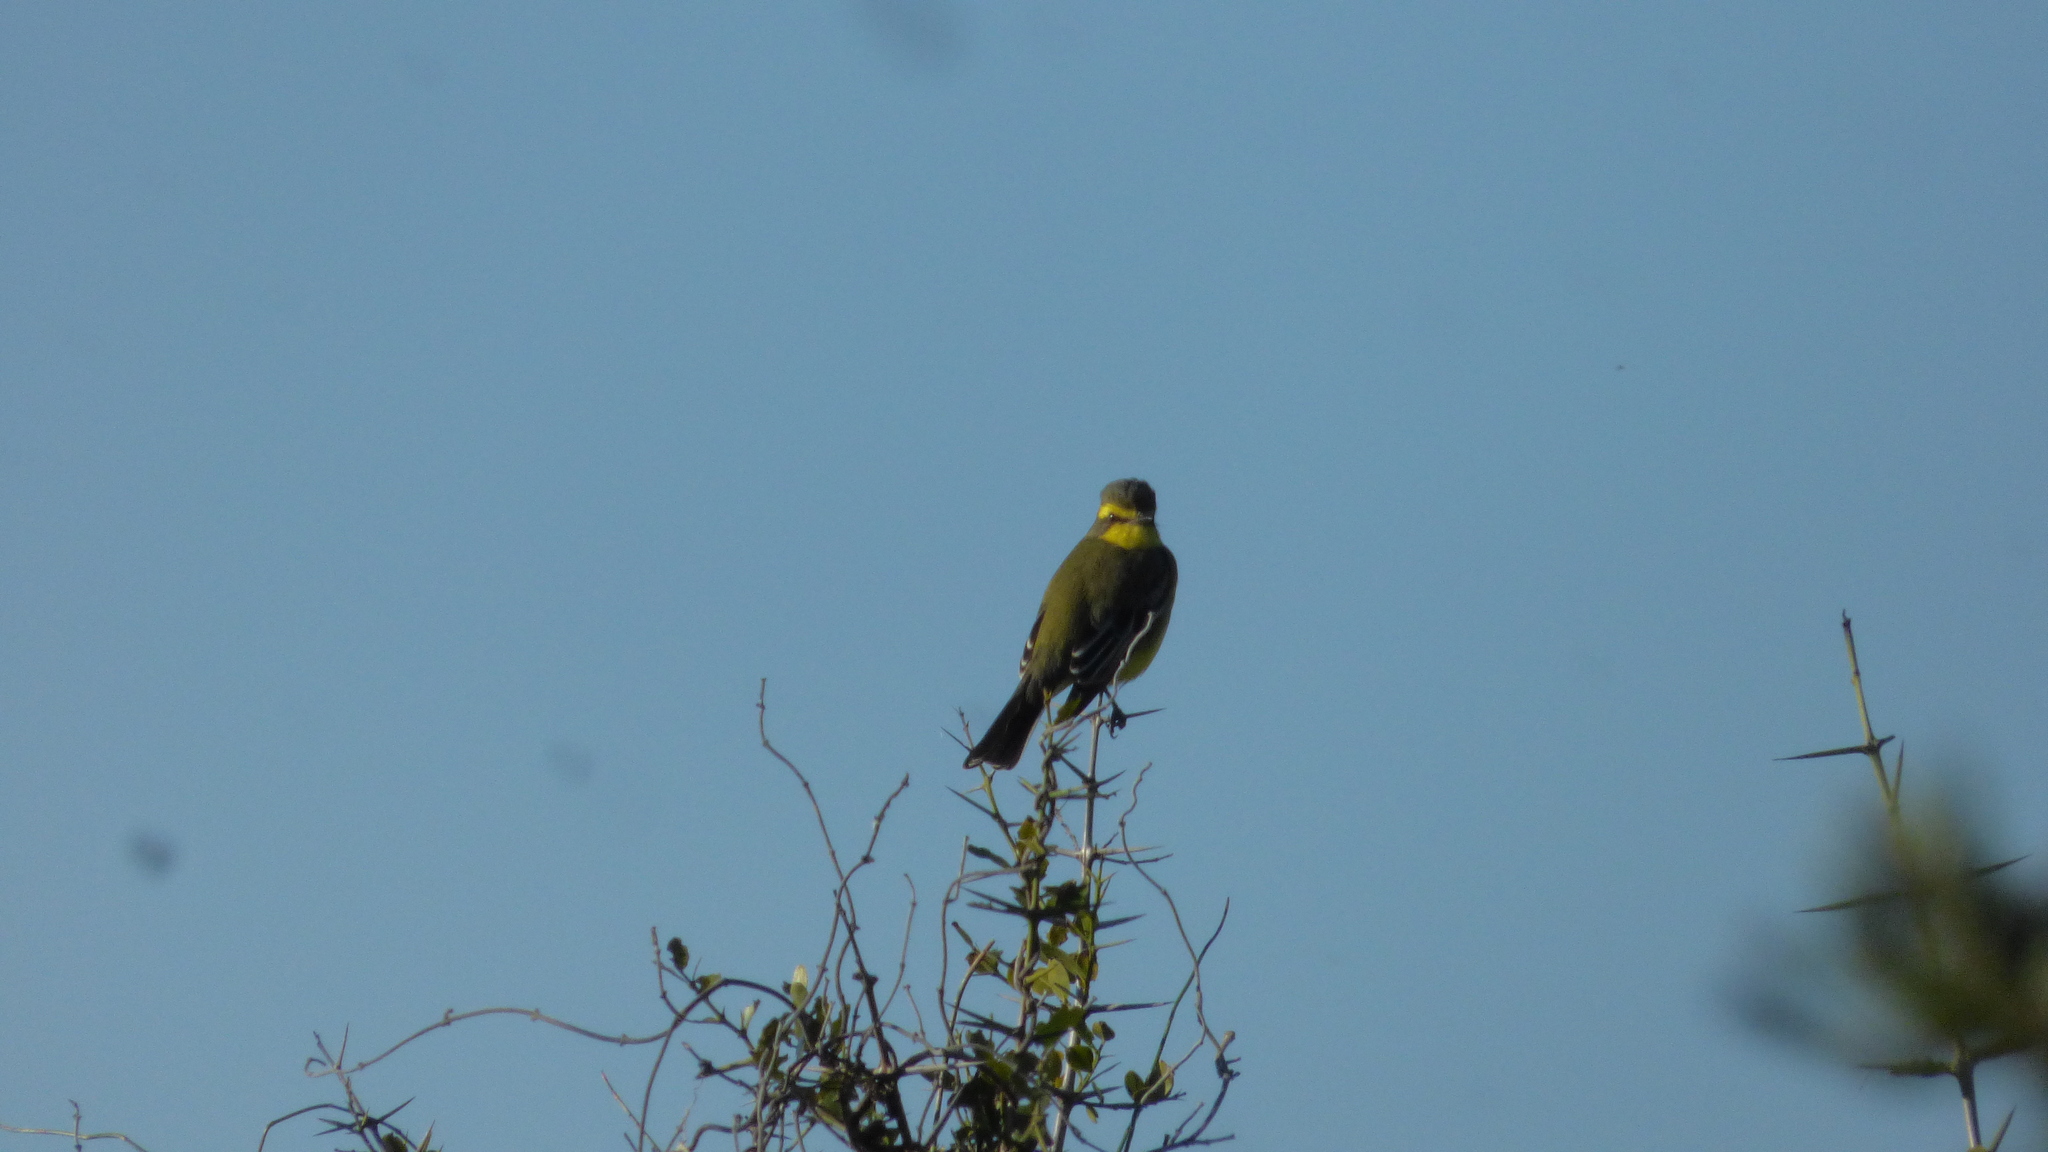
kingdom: Animalia
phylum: Chordata
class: Aves
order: Passeriformes
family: Tyrannidae
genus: Satrapa
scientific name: Satrapa icterophrys
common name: Yellow-browed tyrant
